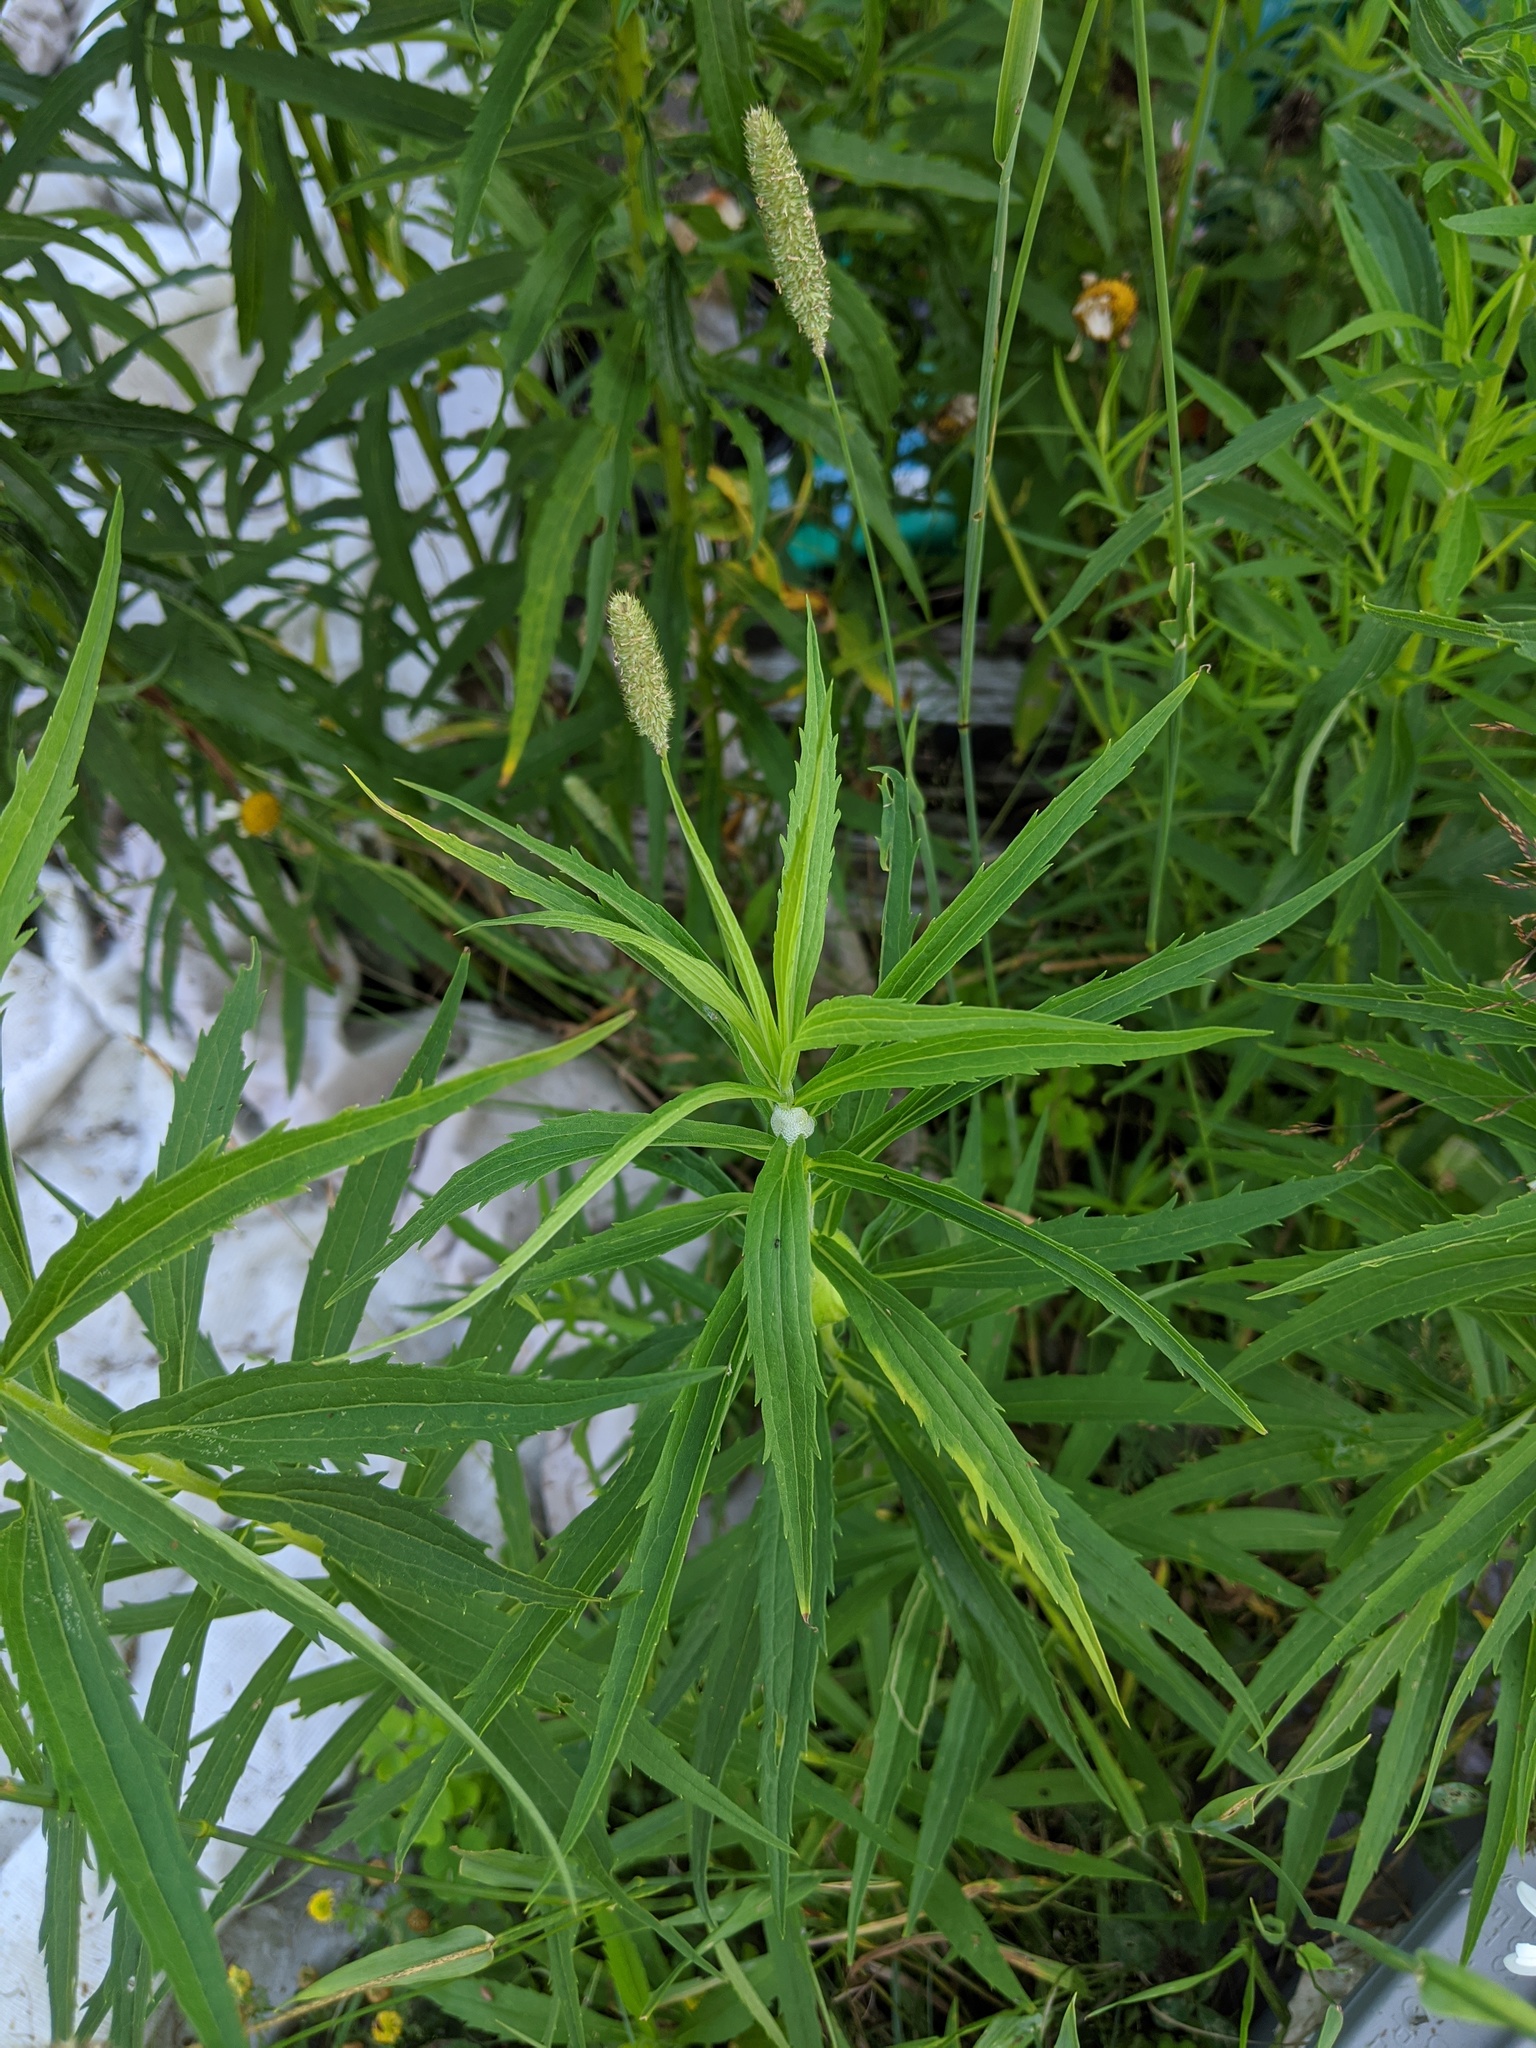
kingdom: Animalia
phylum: Arthropoda
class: Insecta
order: Diptera
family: Tephritidae
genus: Eurosta
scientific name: Eurosta solidaginis
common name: Goldenrod gall fly
